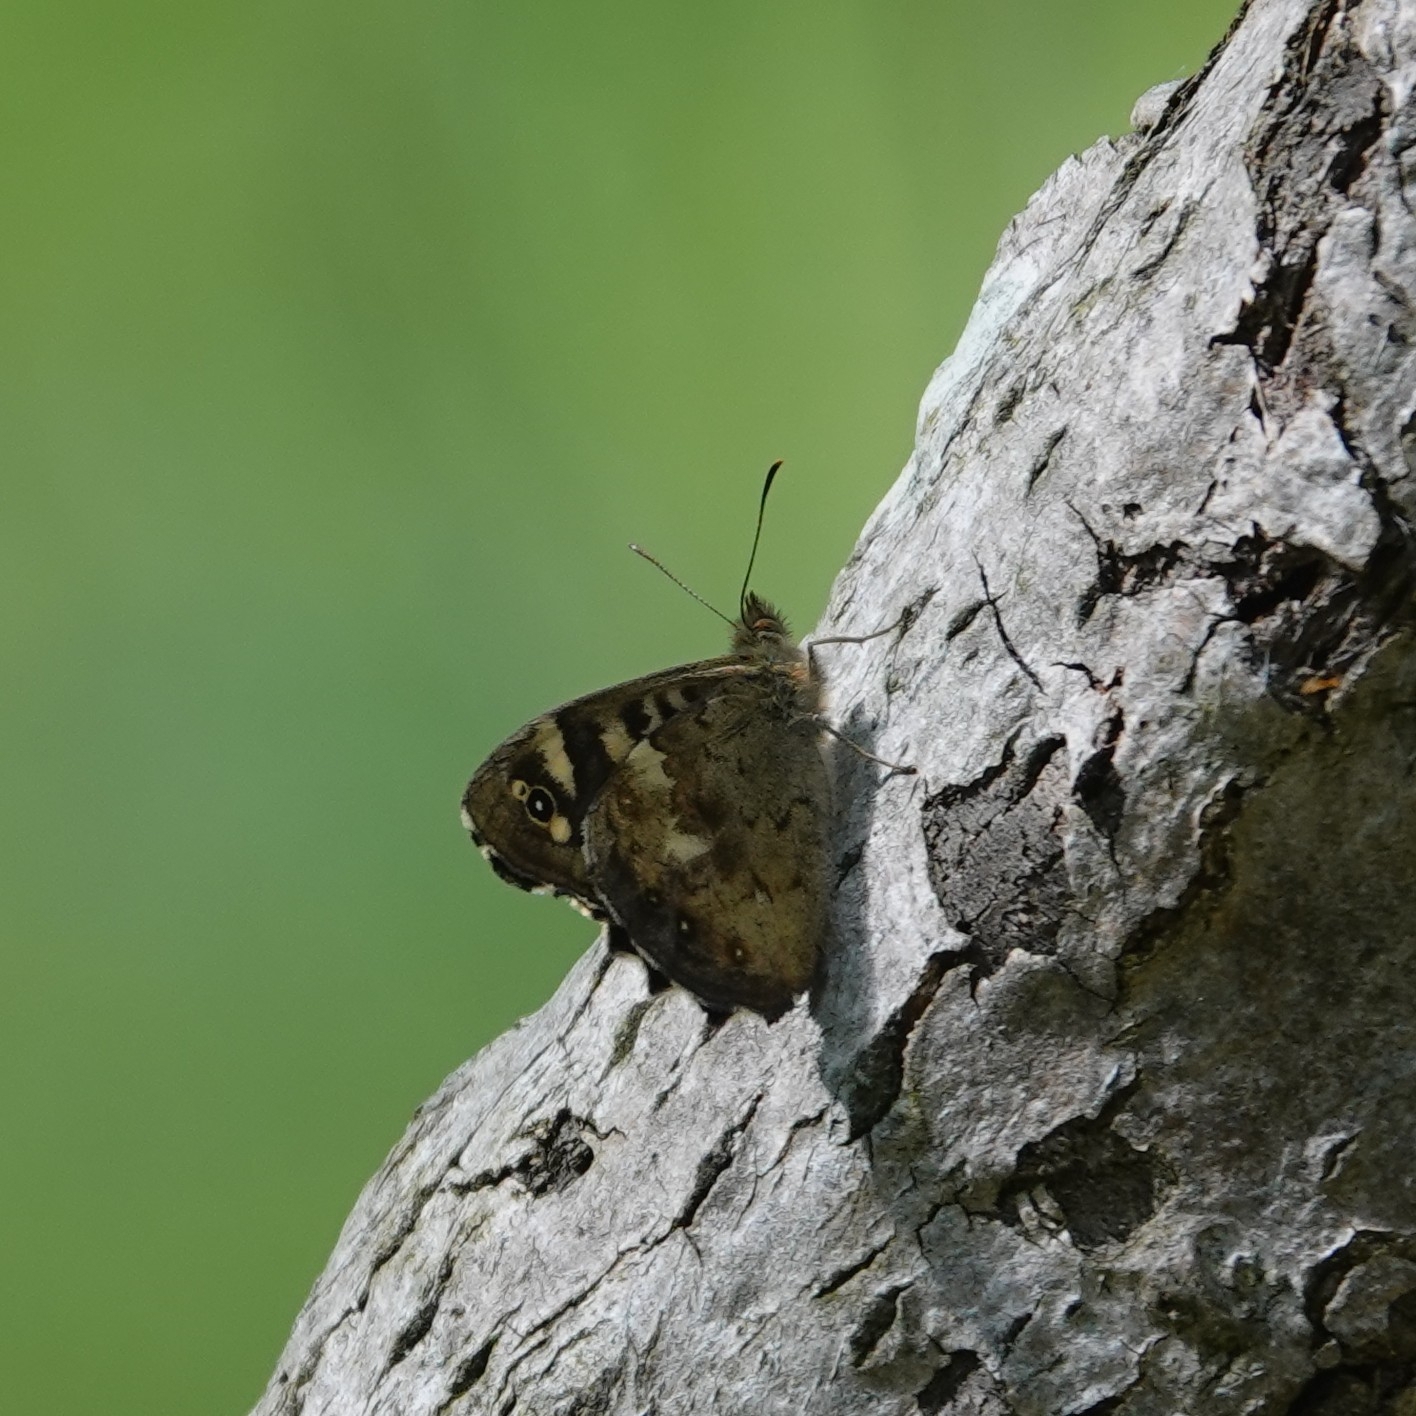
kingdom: Animalia
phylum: Arthropoda
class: Insecta
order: Lepidoptera
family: Nymphalidae
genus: Pararge
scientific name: Pararge aegeria
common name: Speckled wood
